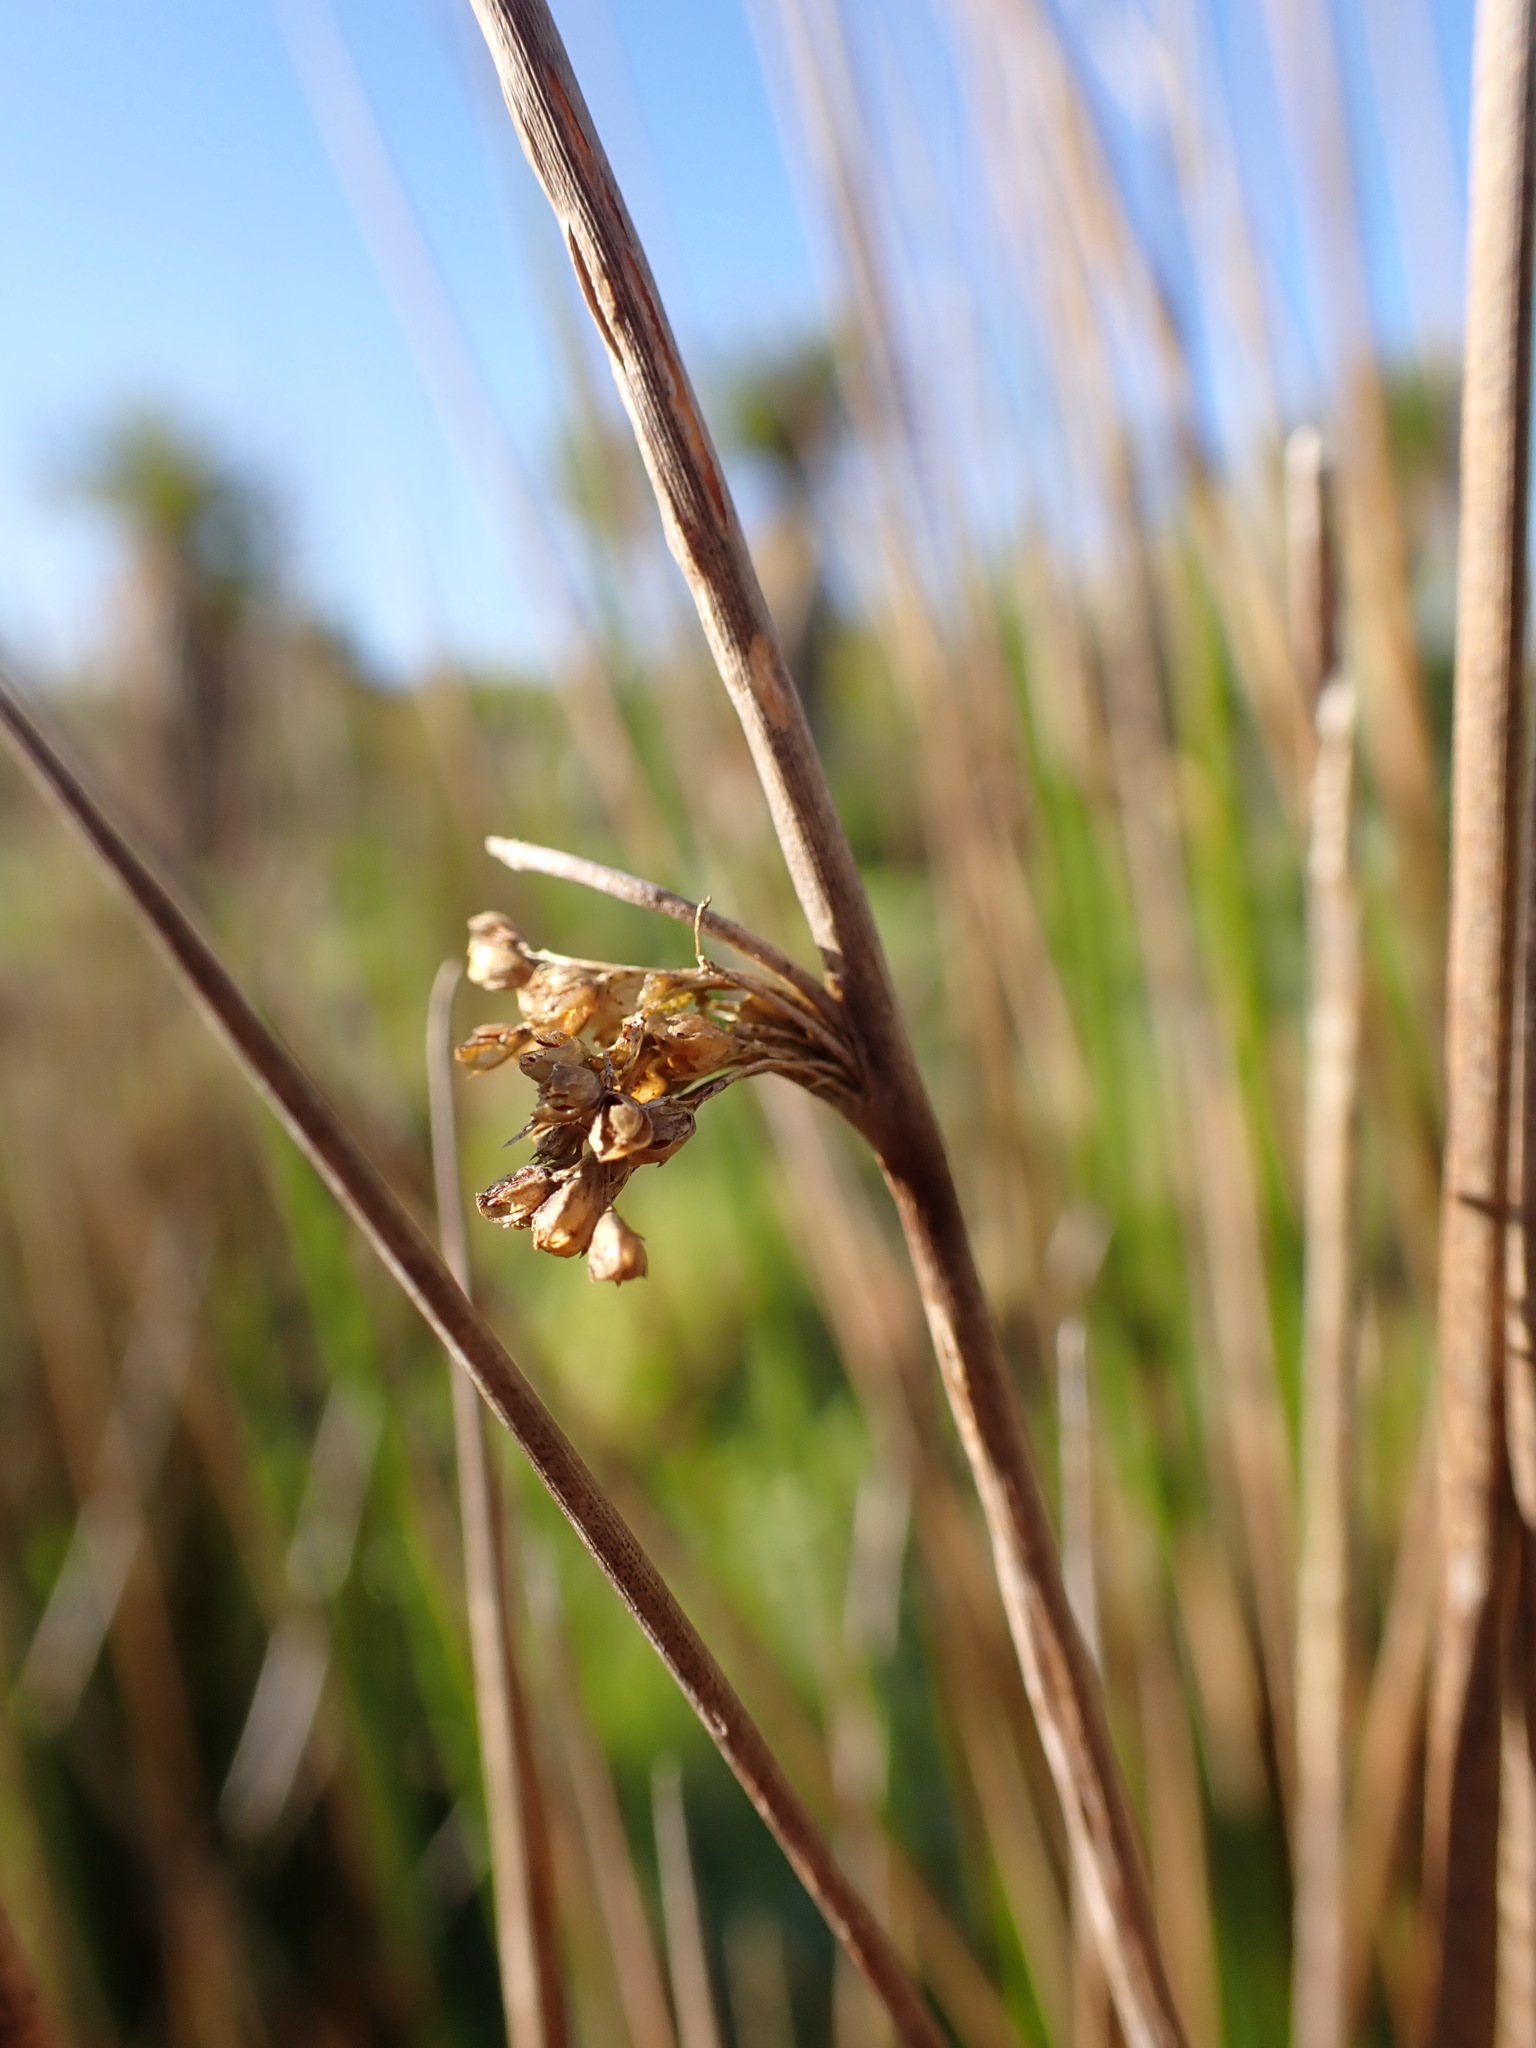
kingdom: Plantae
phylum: Tracheophyta
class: Liliopsida
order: Poales
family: Juncaceae
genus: Juncus
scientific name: Juncus effusus
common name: Soft rush
